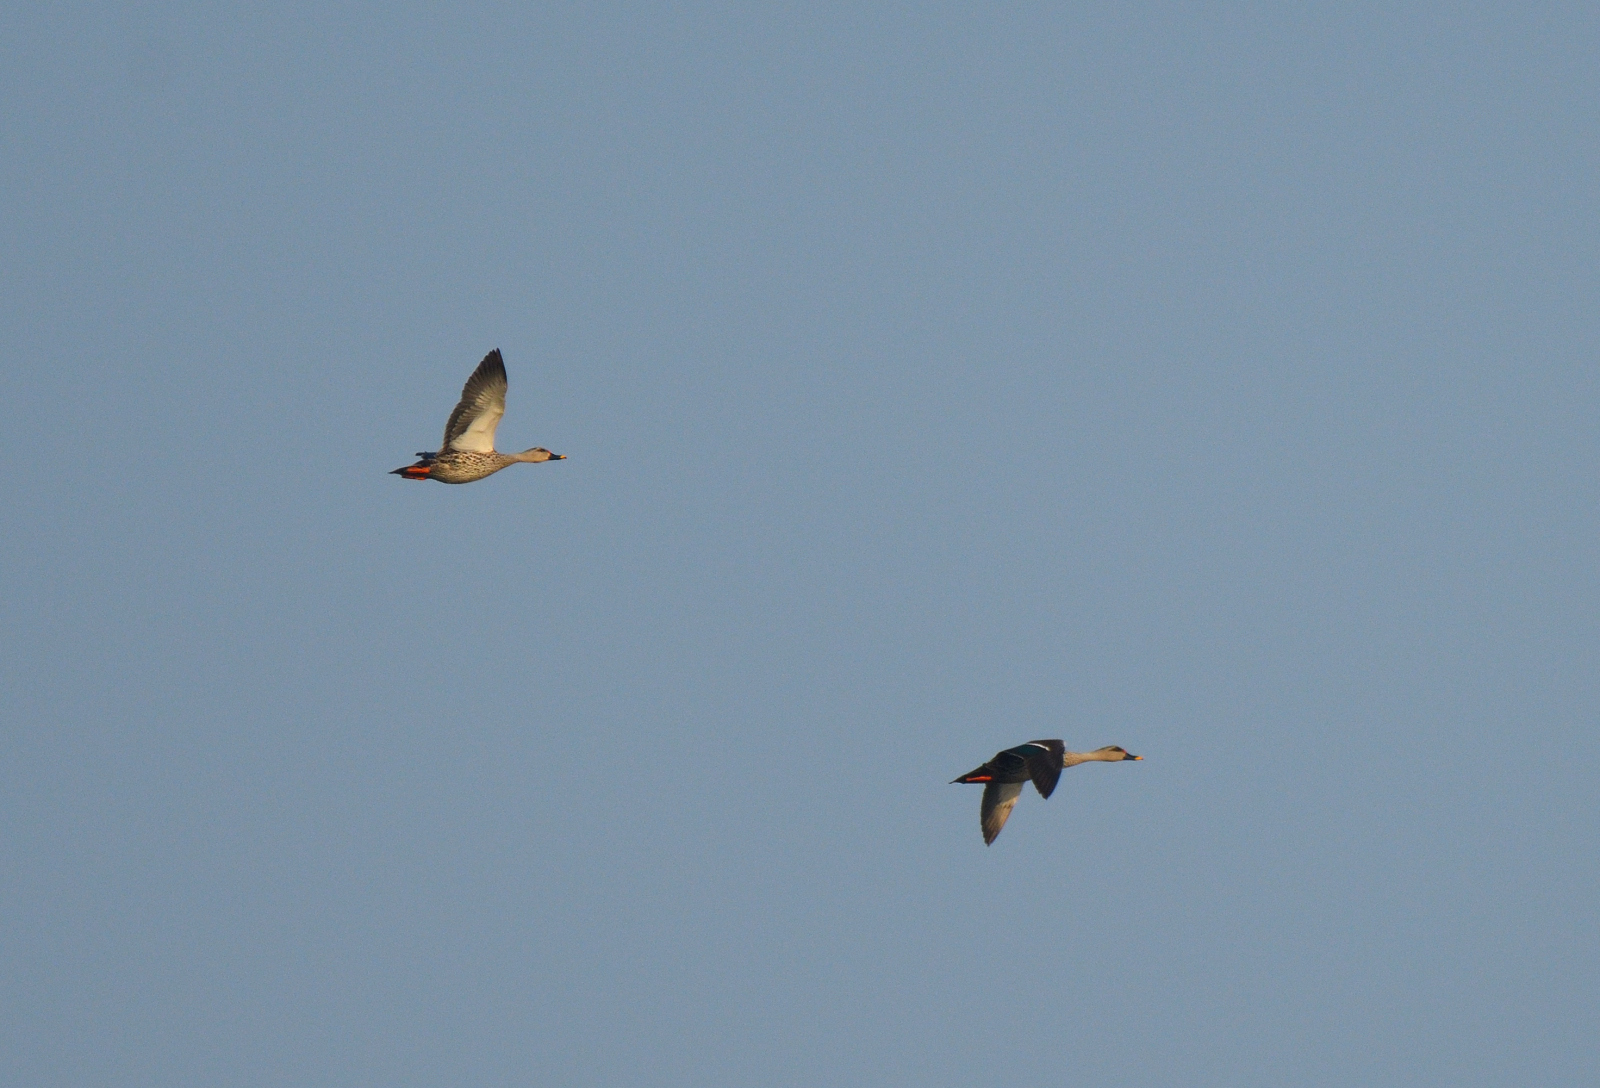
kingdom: Animalia
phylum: Chordata
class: Aves
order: Anseriformes
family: Anatidae
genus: Anas
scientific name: Anas poecilorhyncha
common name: Indian spot-billed duck
